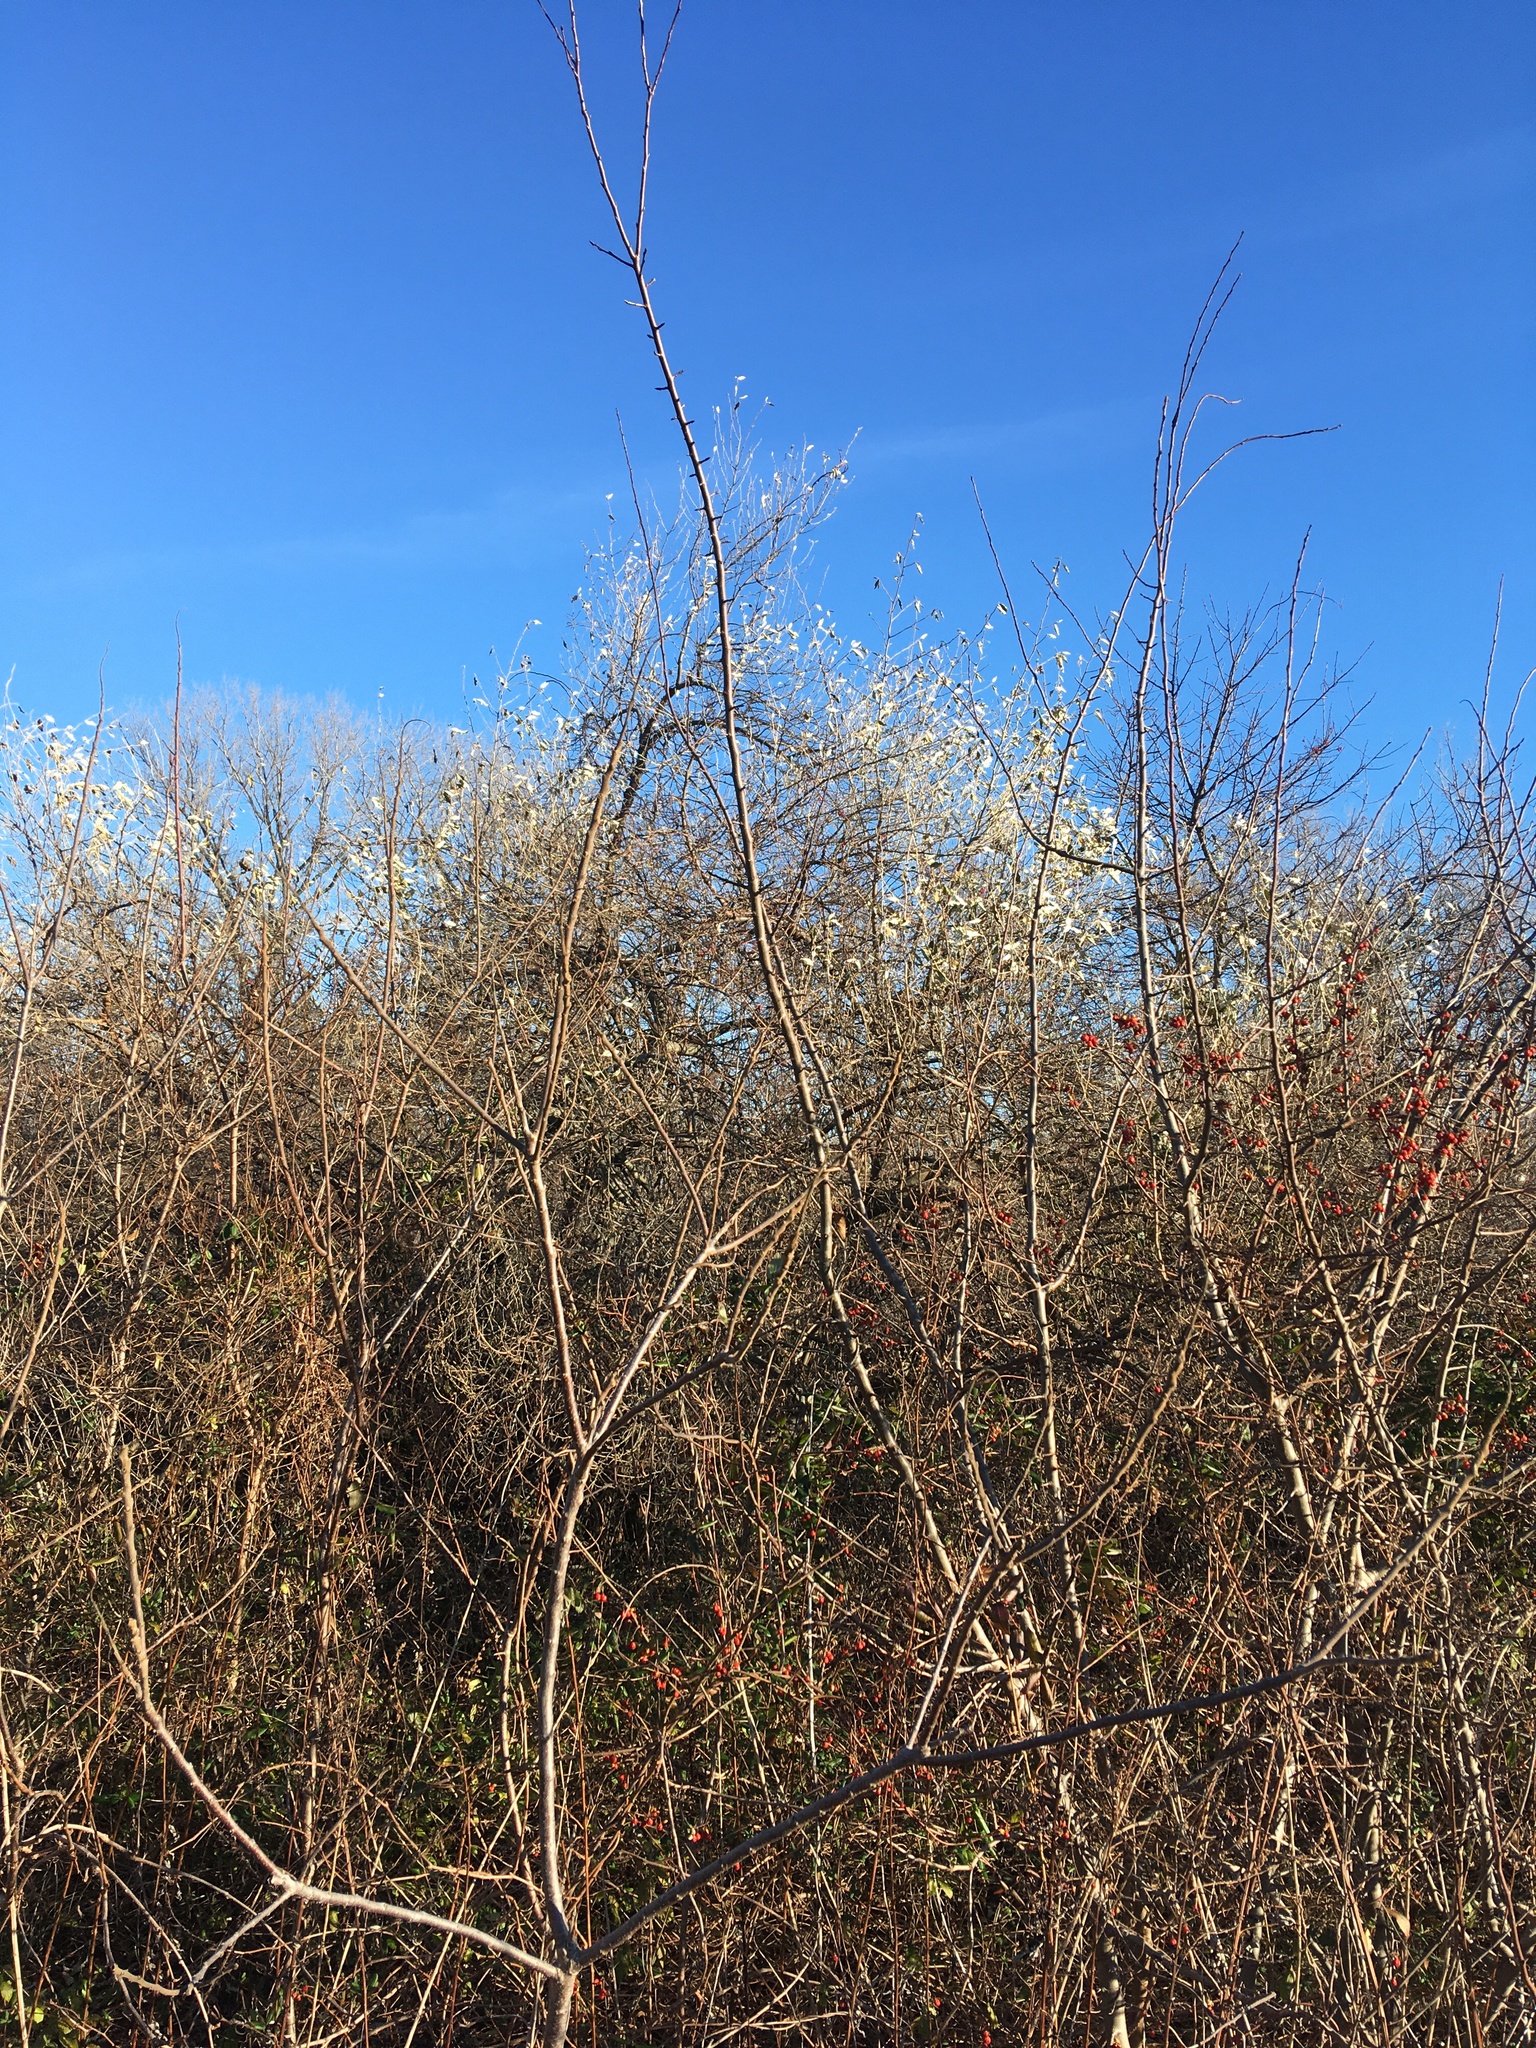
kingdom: Plantae
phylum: Tracheophyta
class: Magnoliopsida
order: Rosales
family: Elaeagnaceae
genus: Elaeagnus
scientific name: Elaeagnus umbellata
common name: Autumn olive
